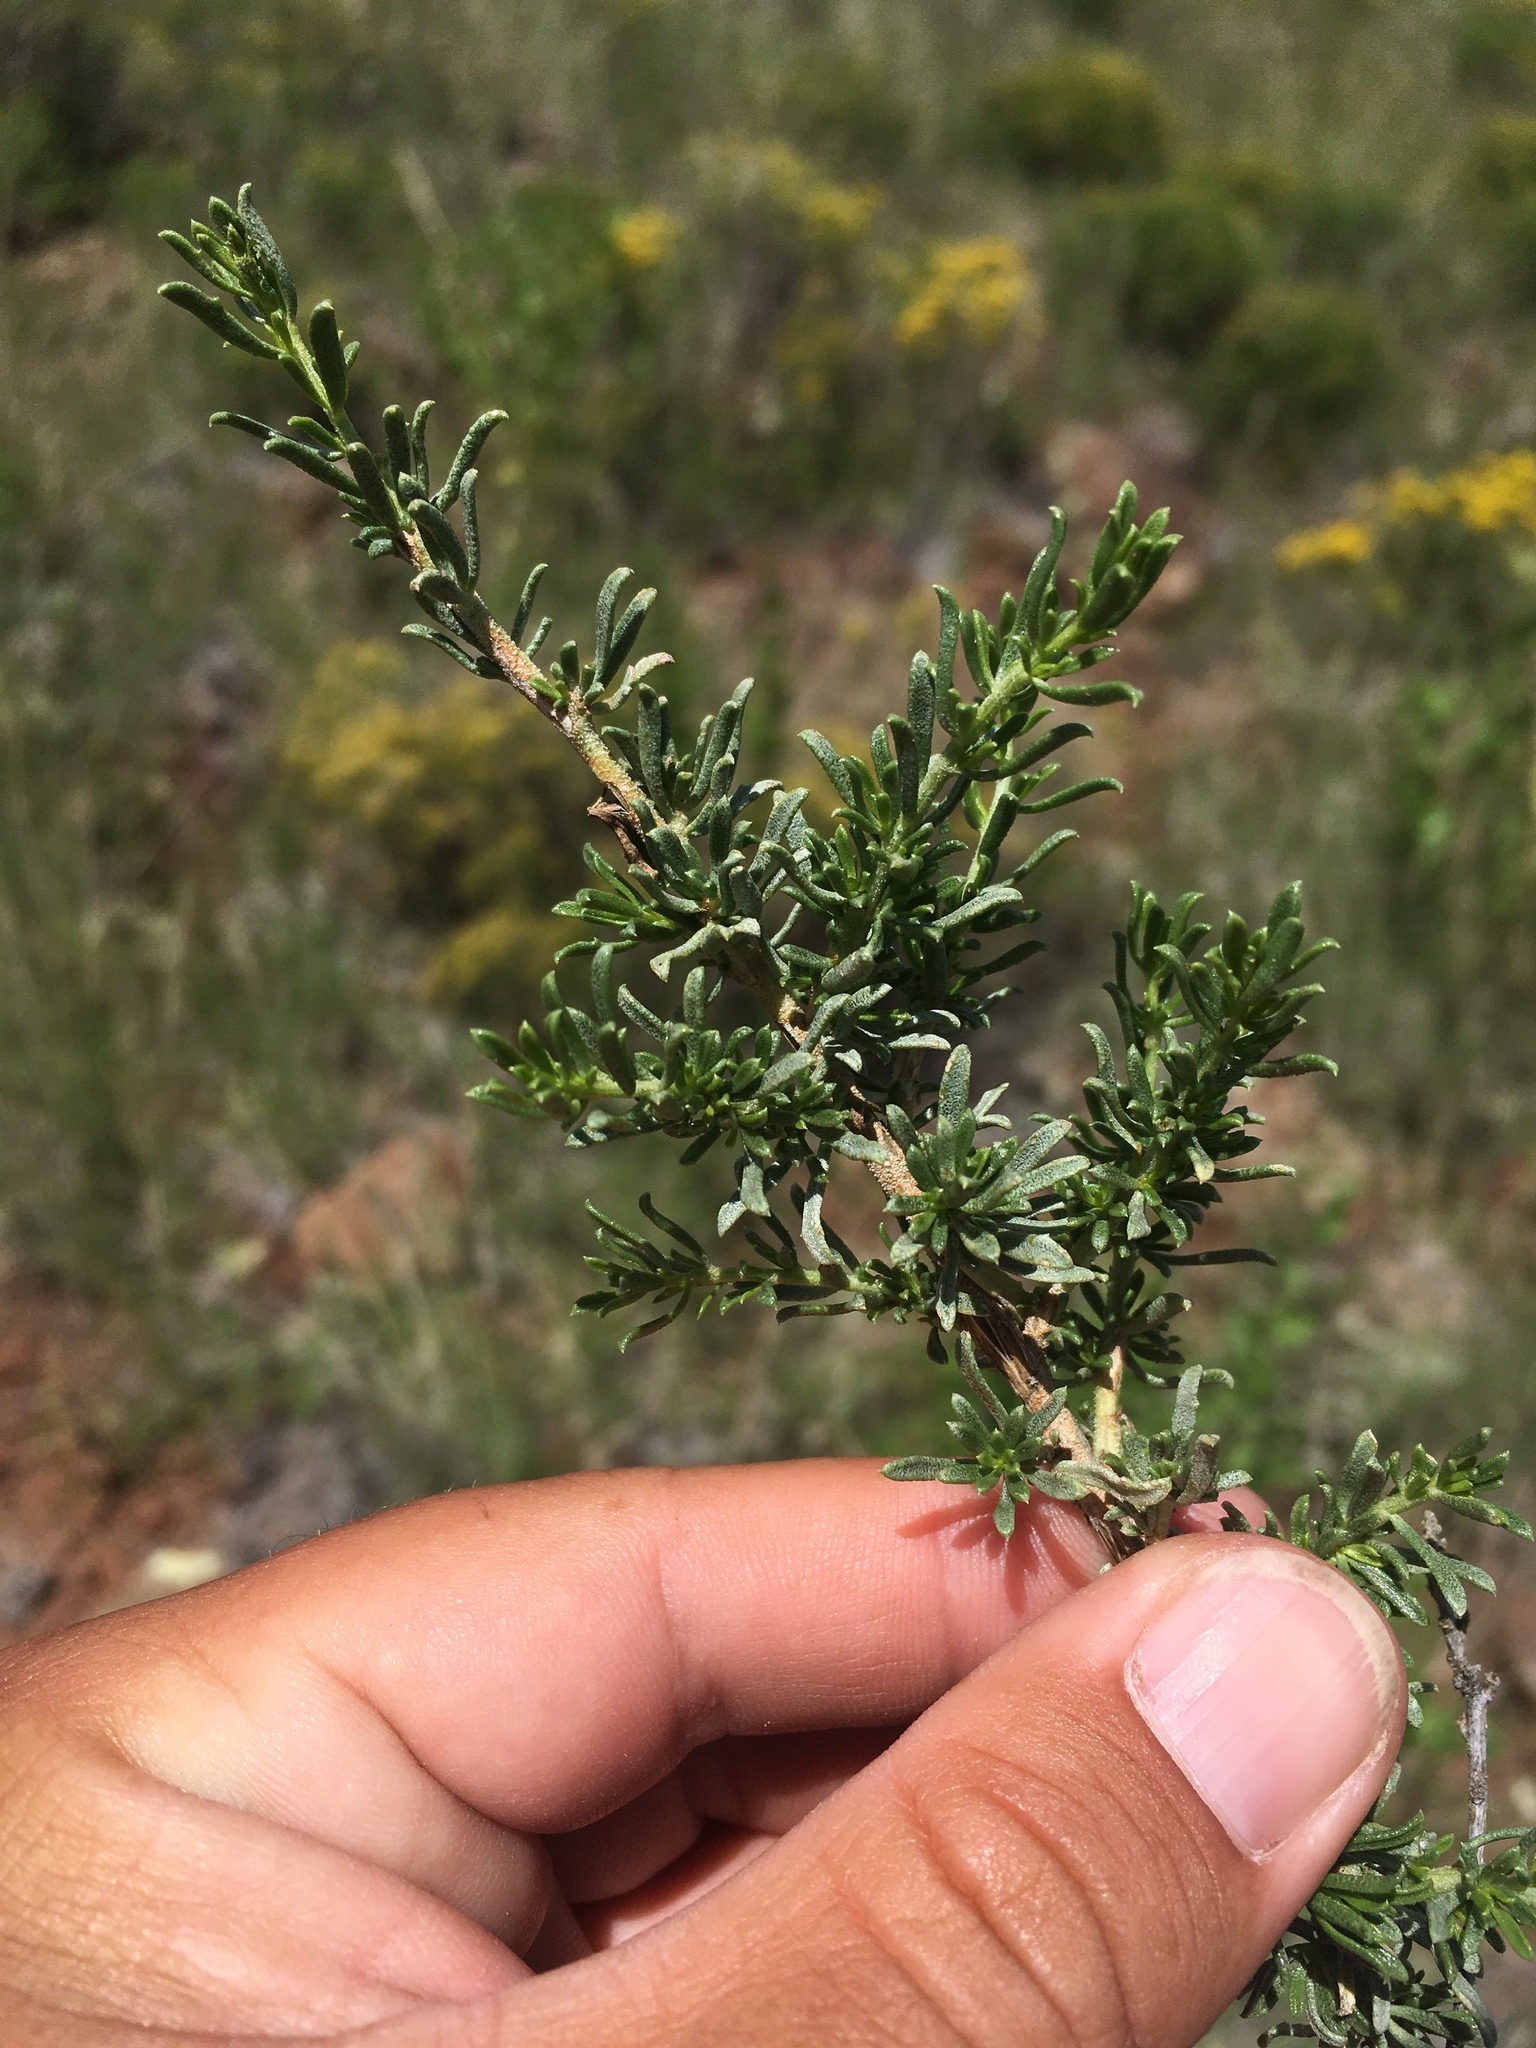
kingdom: Plantae
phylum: Tracheophyta
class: Magnoliopsida
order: Asterales
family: Asteraceae
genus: Baccharis
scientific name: Baccharis pteronioides
